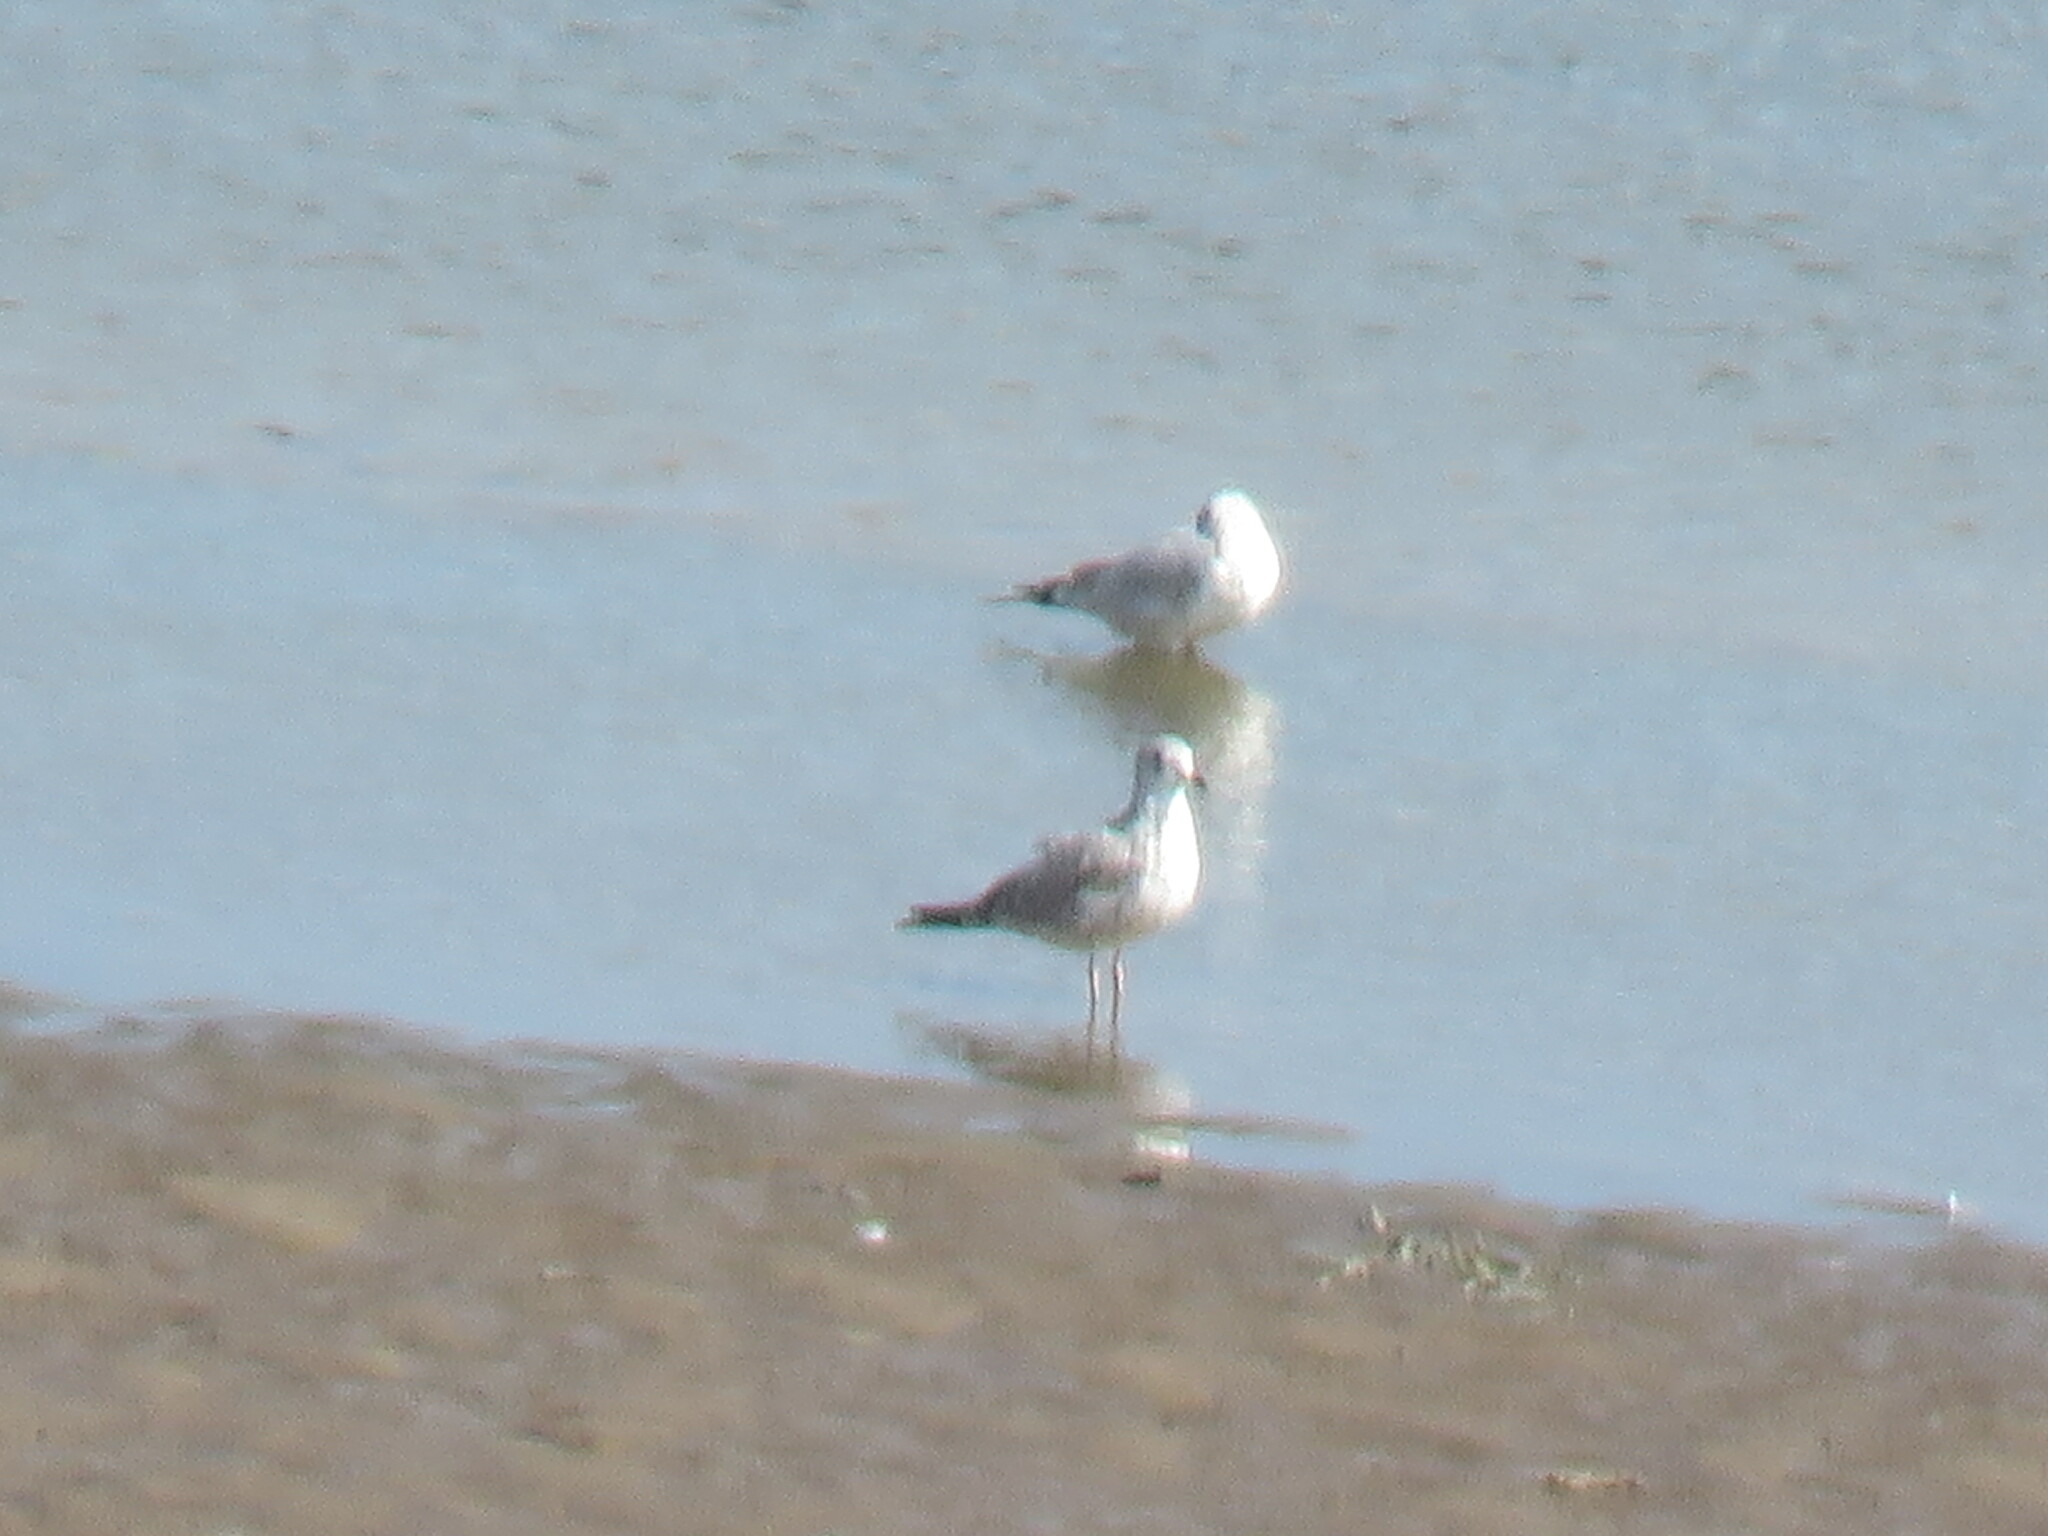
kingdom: Animalia
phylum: Chordata
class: Aves
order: Charadriiformes
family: Laridae
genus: Larus
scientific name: Larus delawarensis
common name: Ring-billed gull
